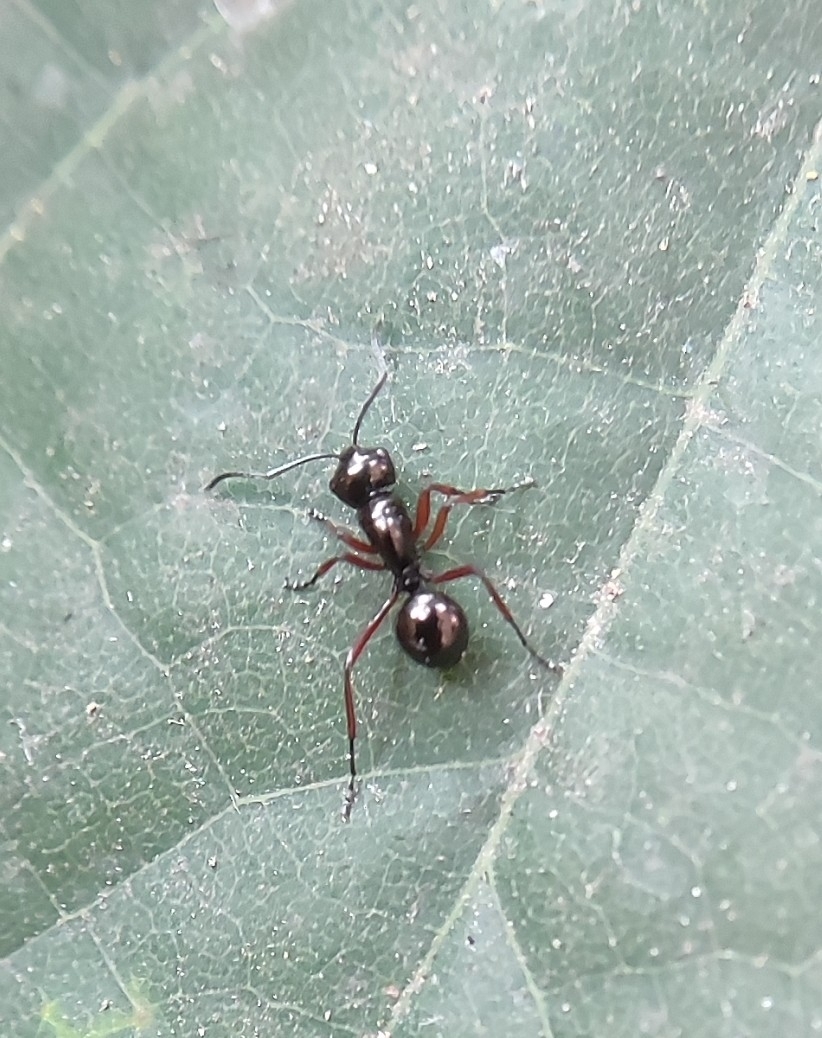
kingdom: Animalia
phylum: Arthropoda
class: Insecta
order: Hymenoptera
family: Formicidae
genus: Polyrhachis
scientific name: Polyrhachis rastellata
